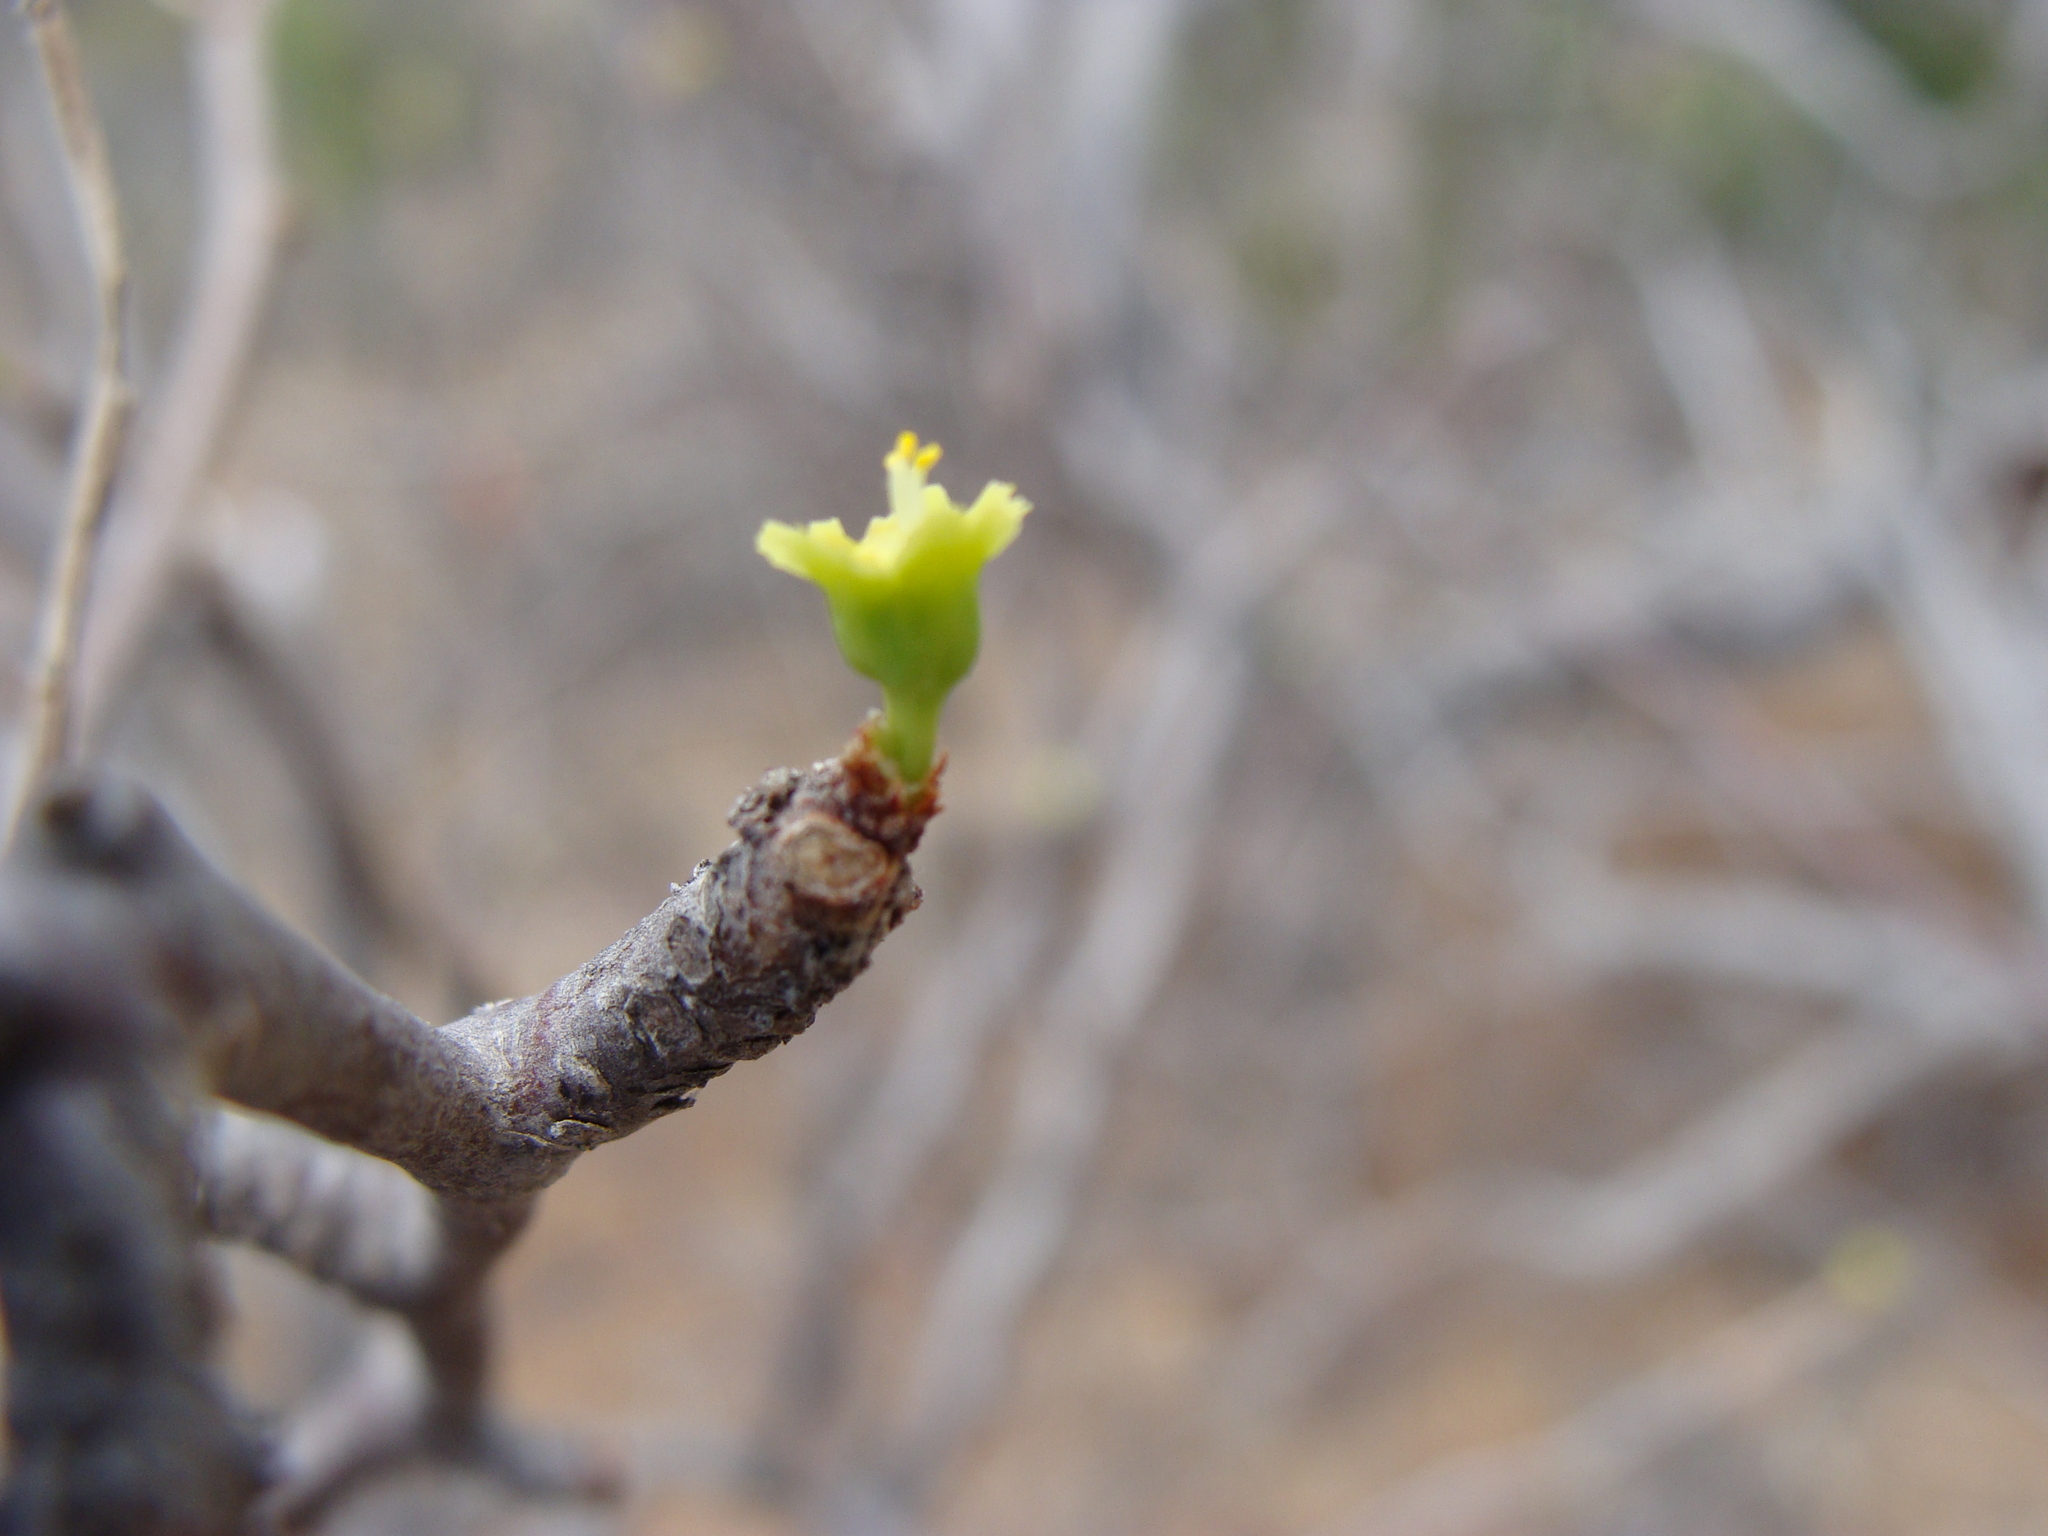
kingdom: Plantae
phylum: Tracheophyta
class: Magnoliopsida
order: Malpighiales
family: Euphorbiaceae
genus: Euphorbia
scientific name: Euphorbia californica
